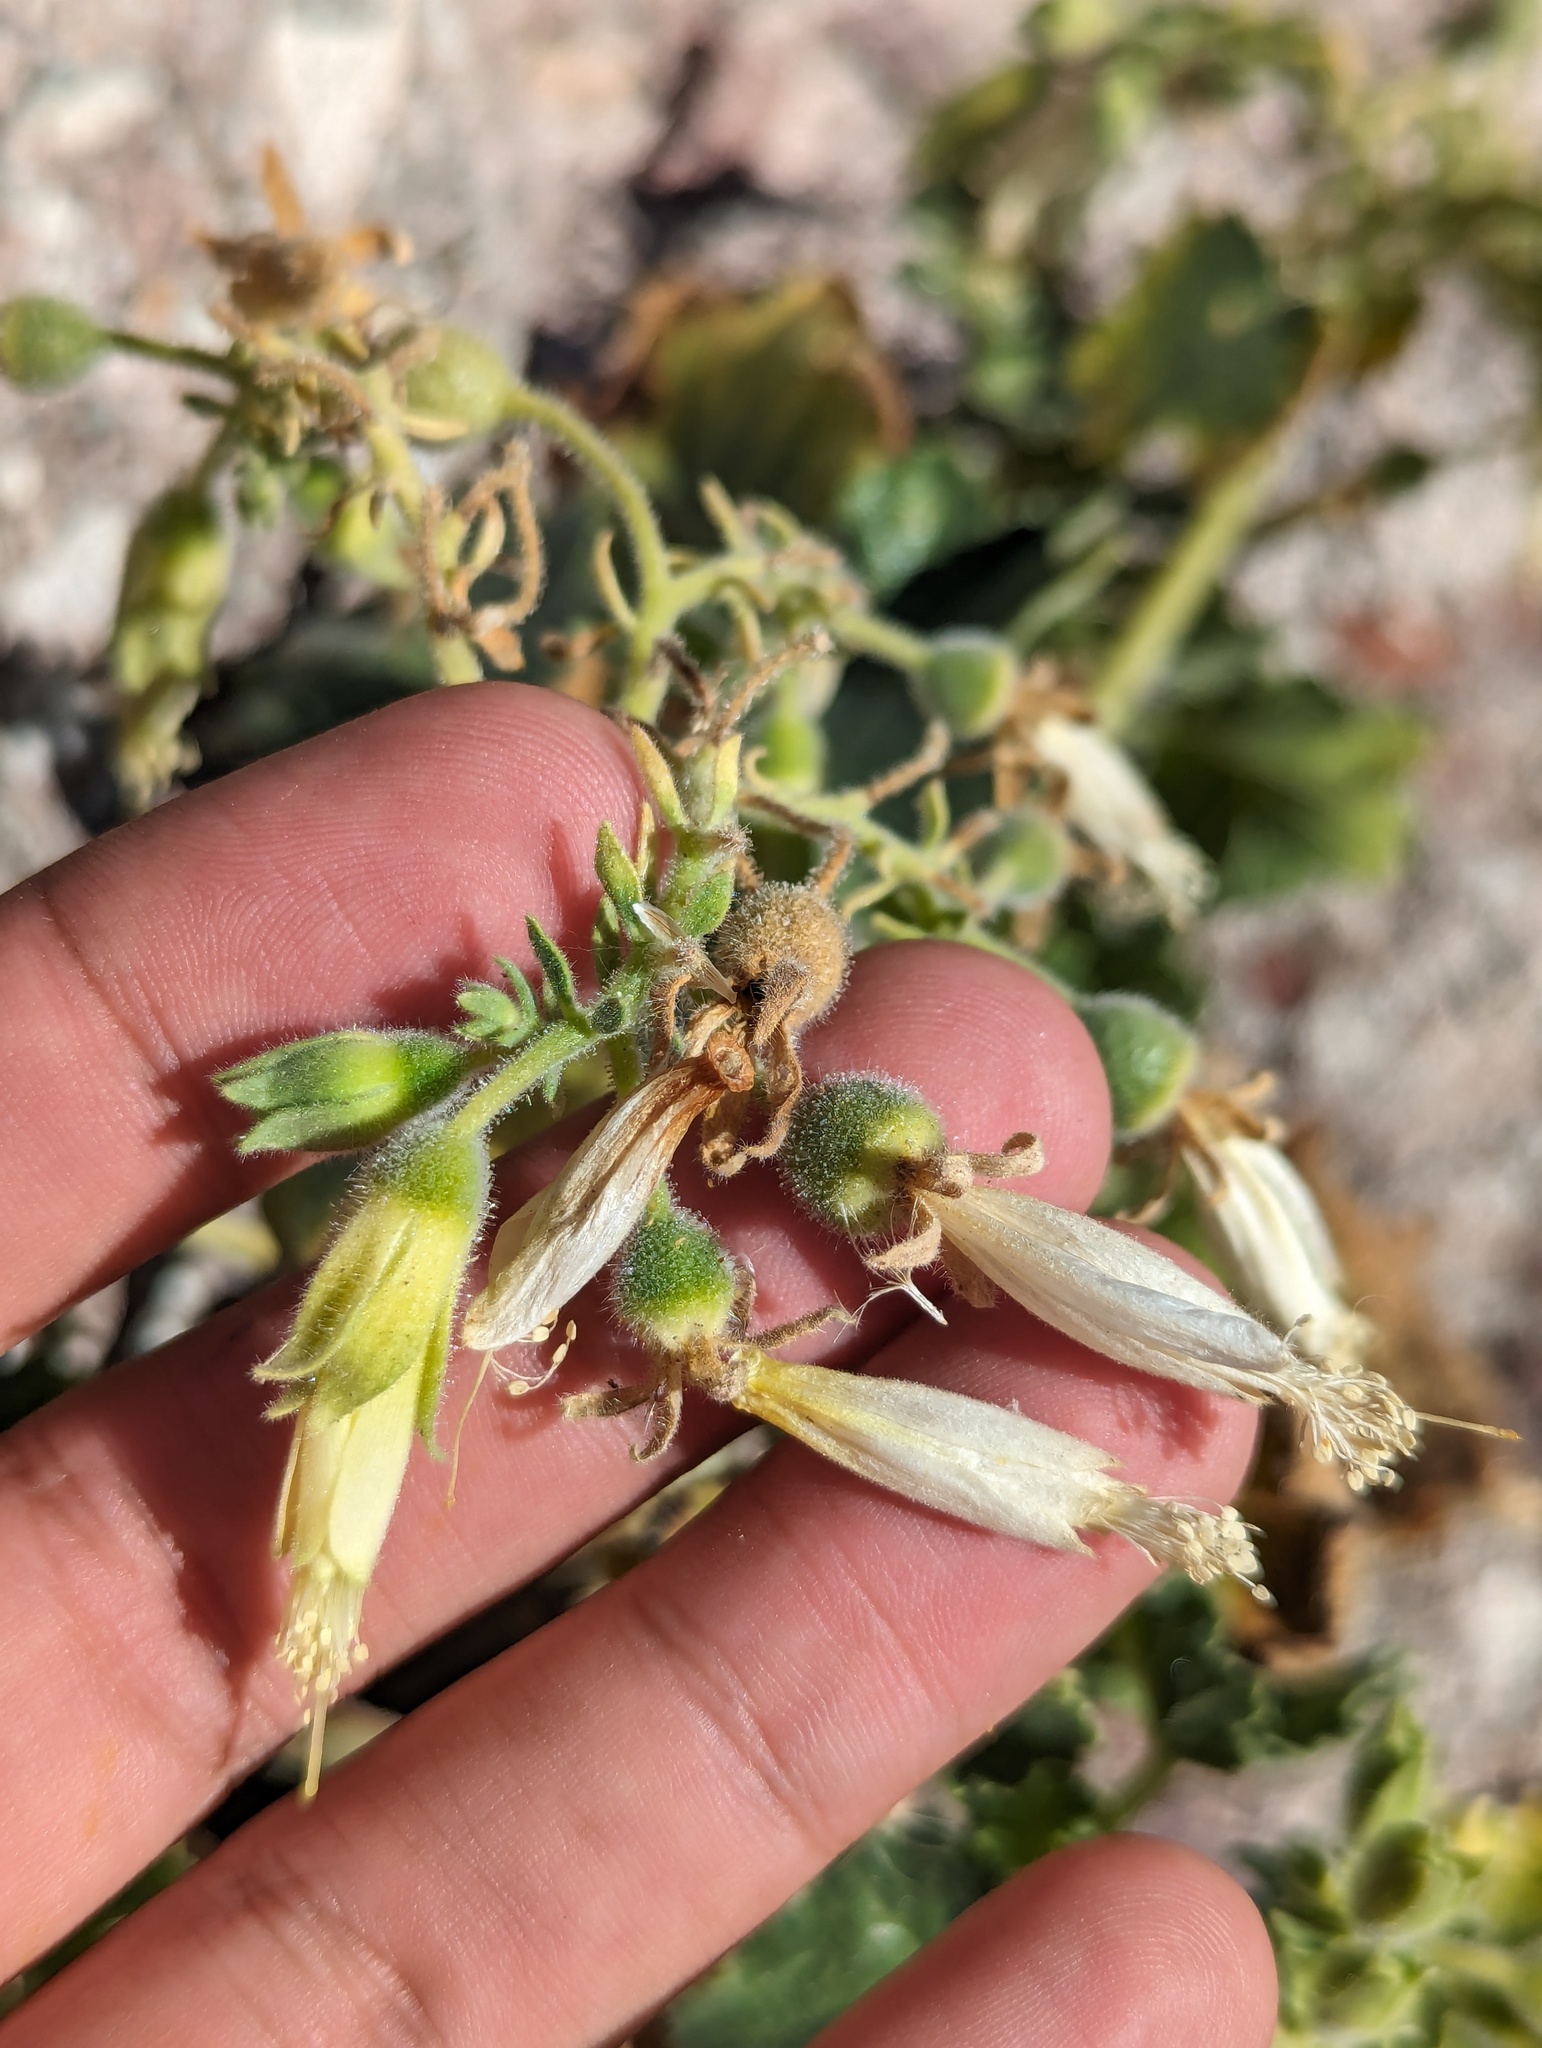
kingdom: Plantae
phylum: Tracheophyta
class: Magnoliopsida
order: Cornales
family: Loasaceae
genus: Eucnide
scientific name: Eucnide cordata
